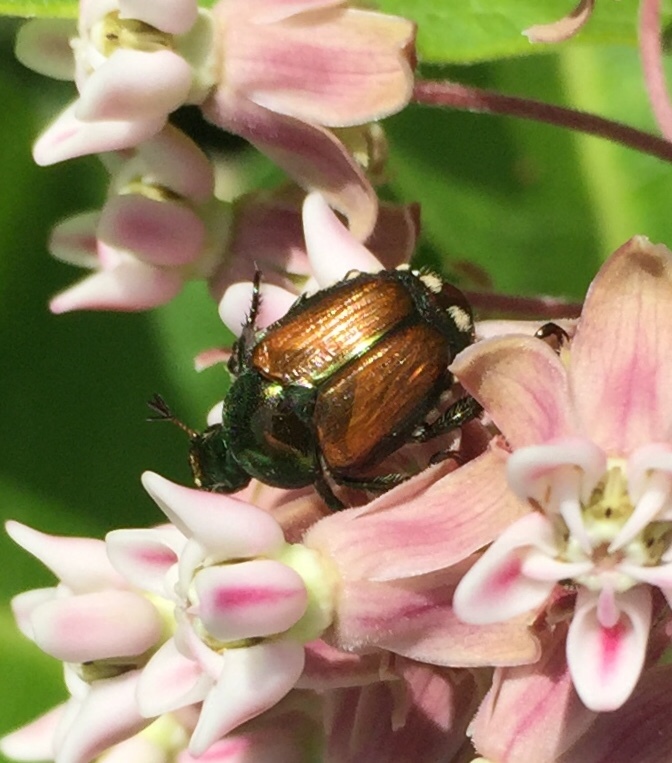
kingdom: Animalia
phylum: Arthropoda
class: Insecta
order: Coleoptera
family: Scarabaeidae
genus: Popillia
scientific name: Popillia japonica
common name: Japanese beetle
